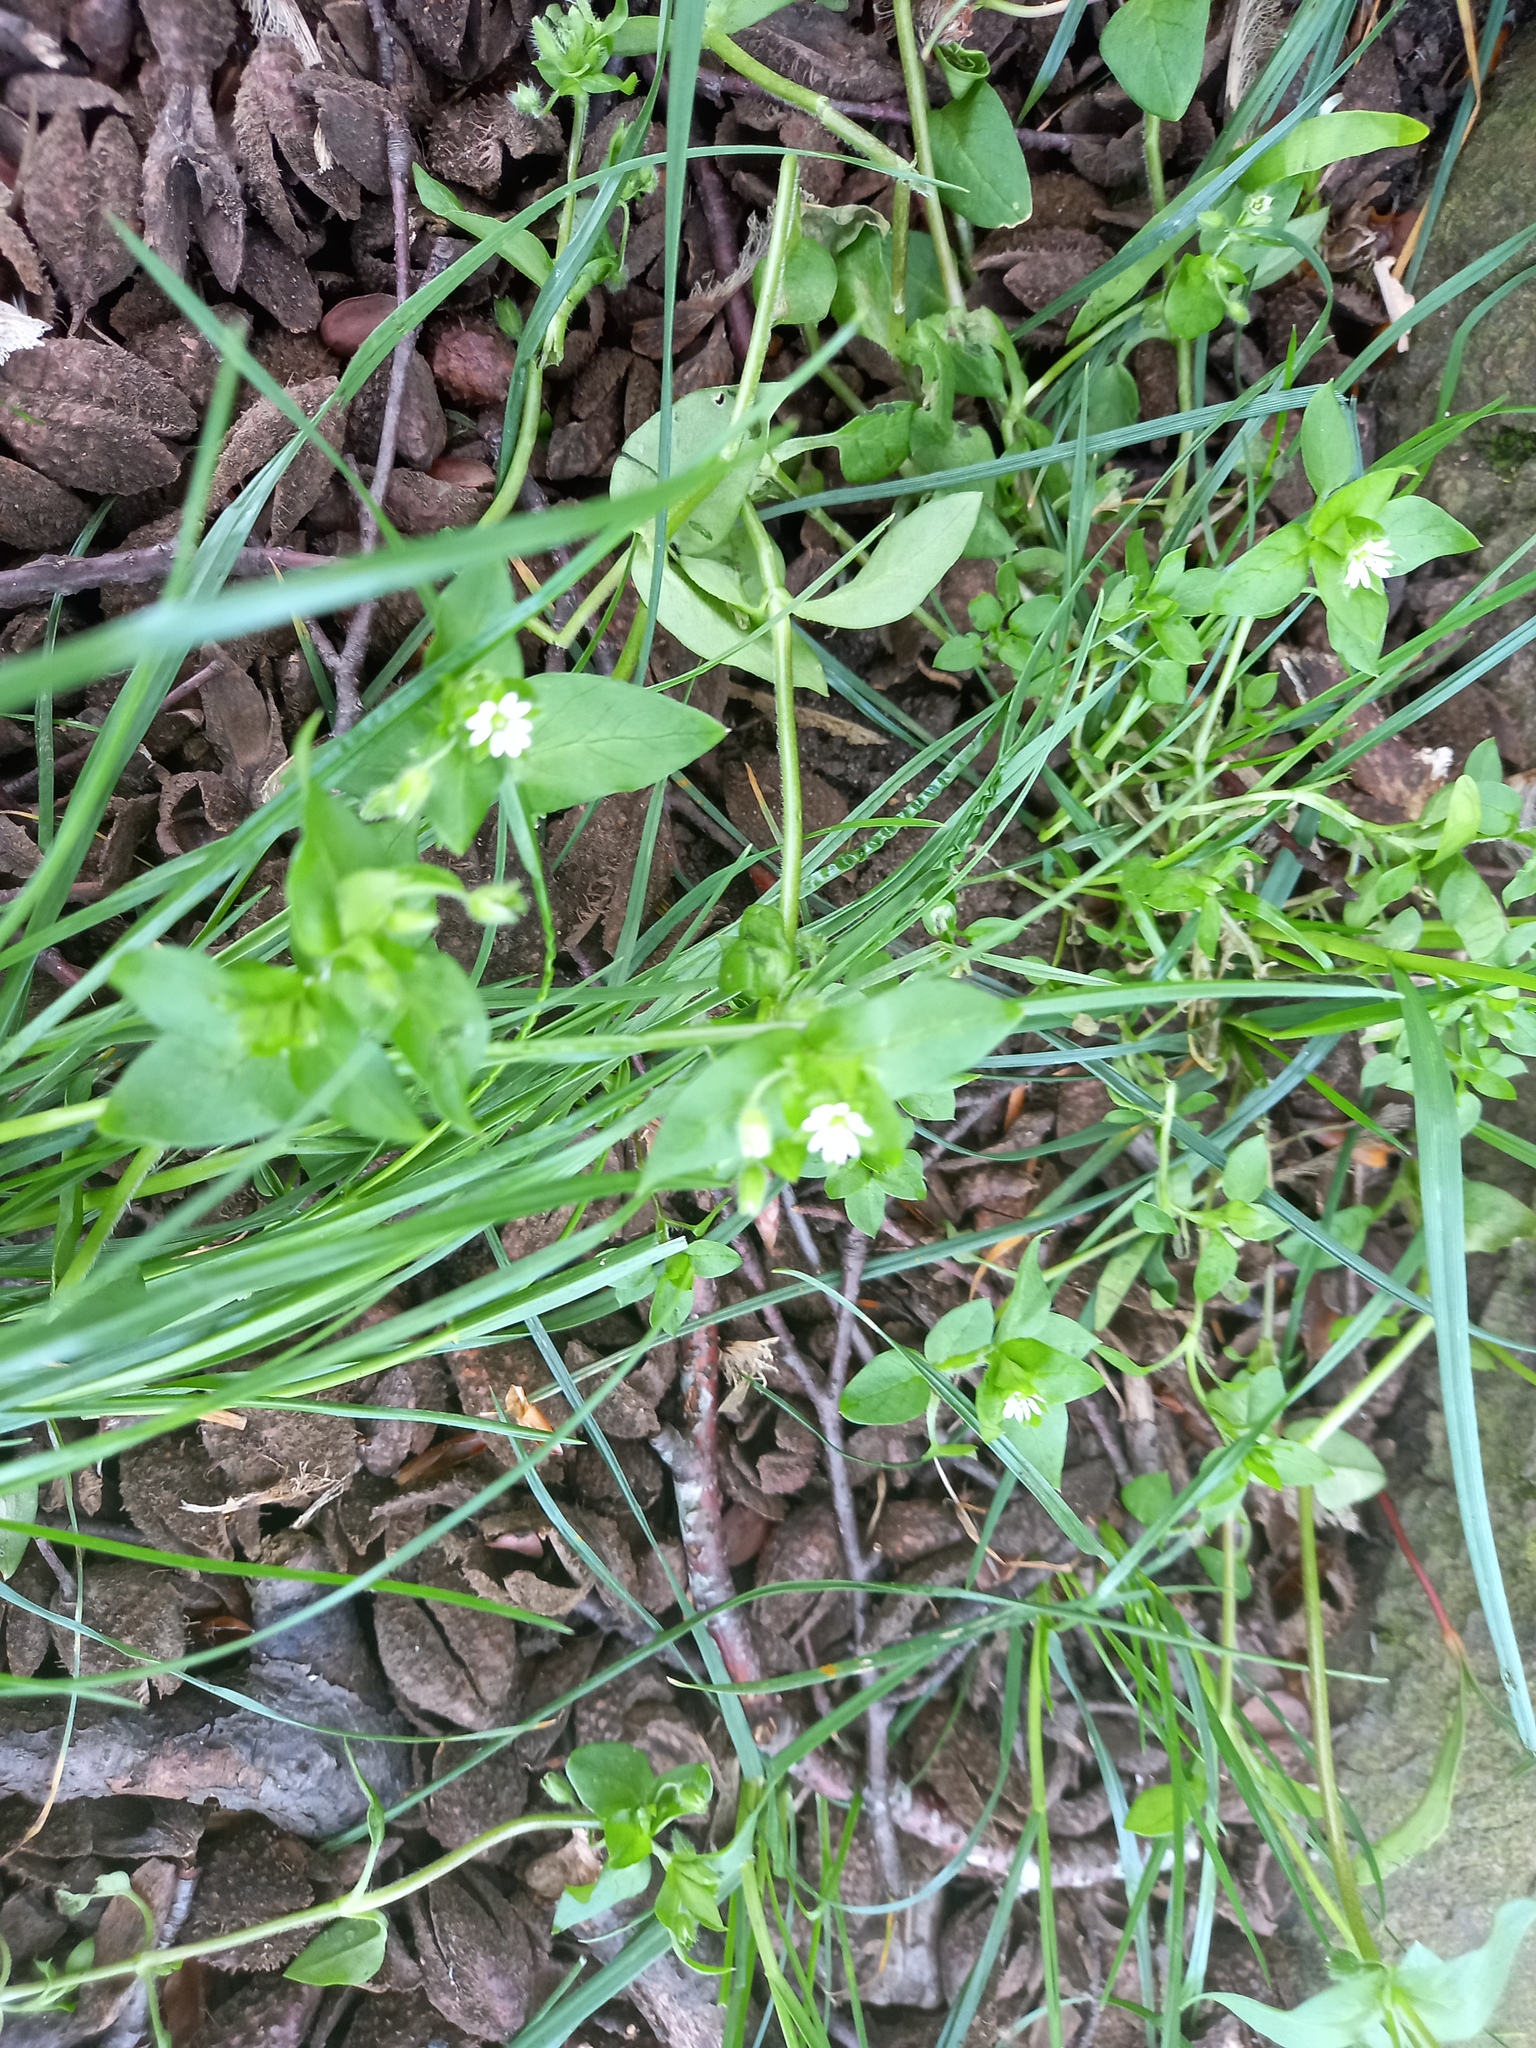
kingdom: Plantae
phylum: Tracheophyta
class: Magnoliopsida
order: Caryophyllales
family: Caryophyllaceae
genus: Stellaria
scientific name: Stellaria media
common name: Common chickweed
